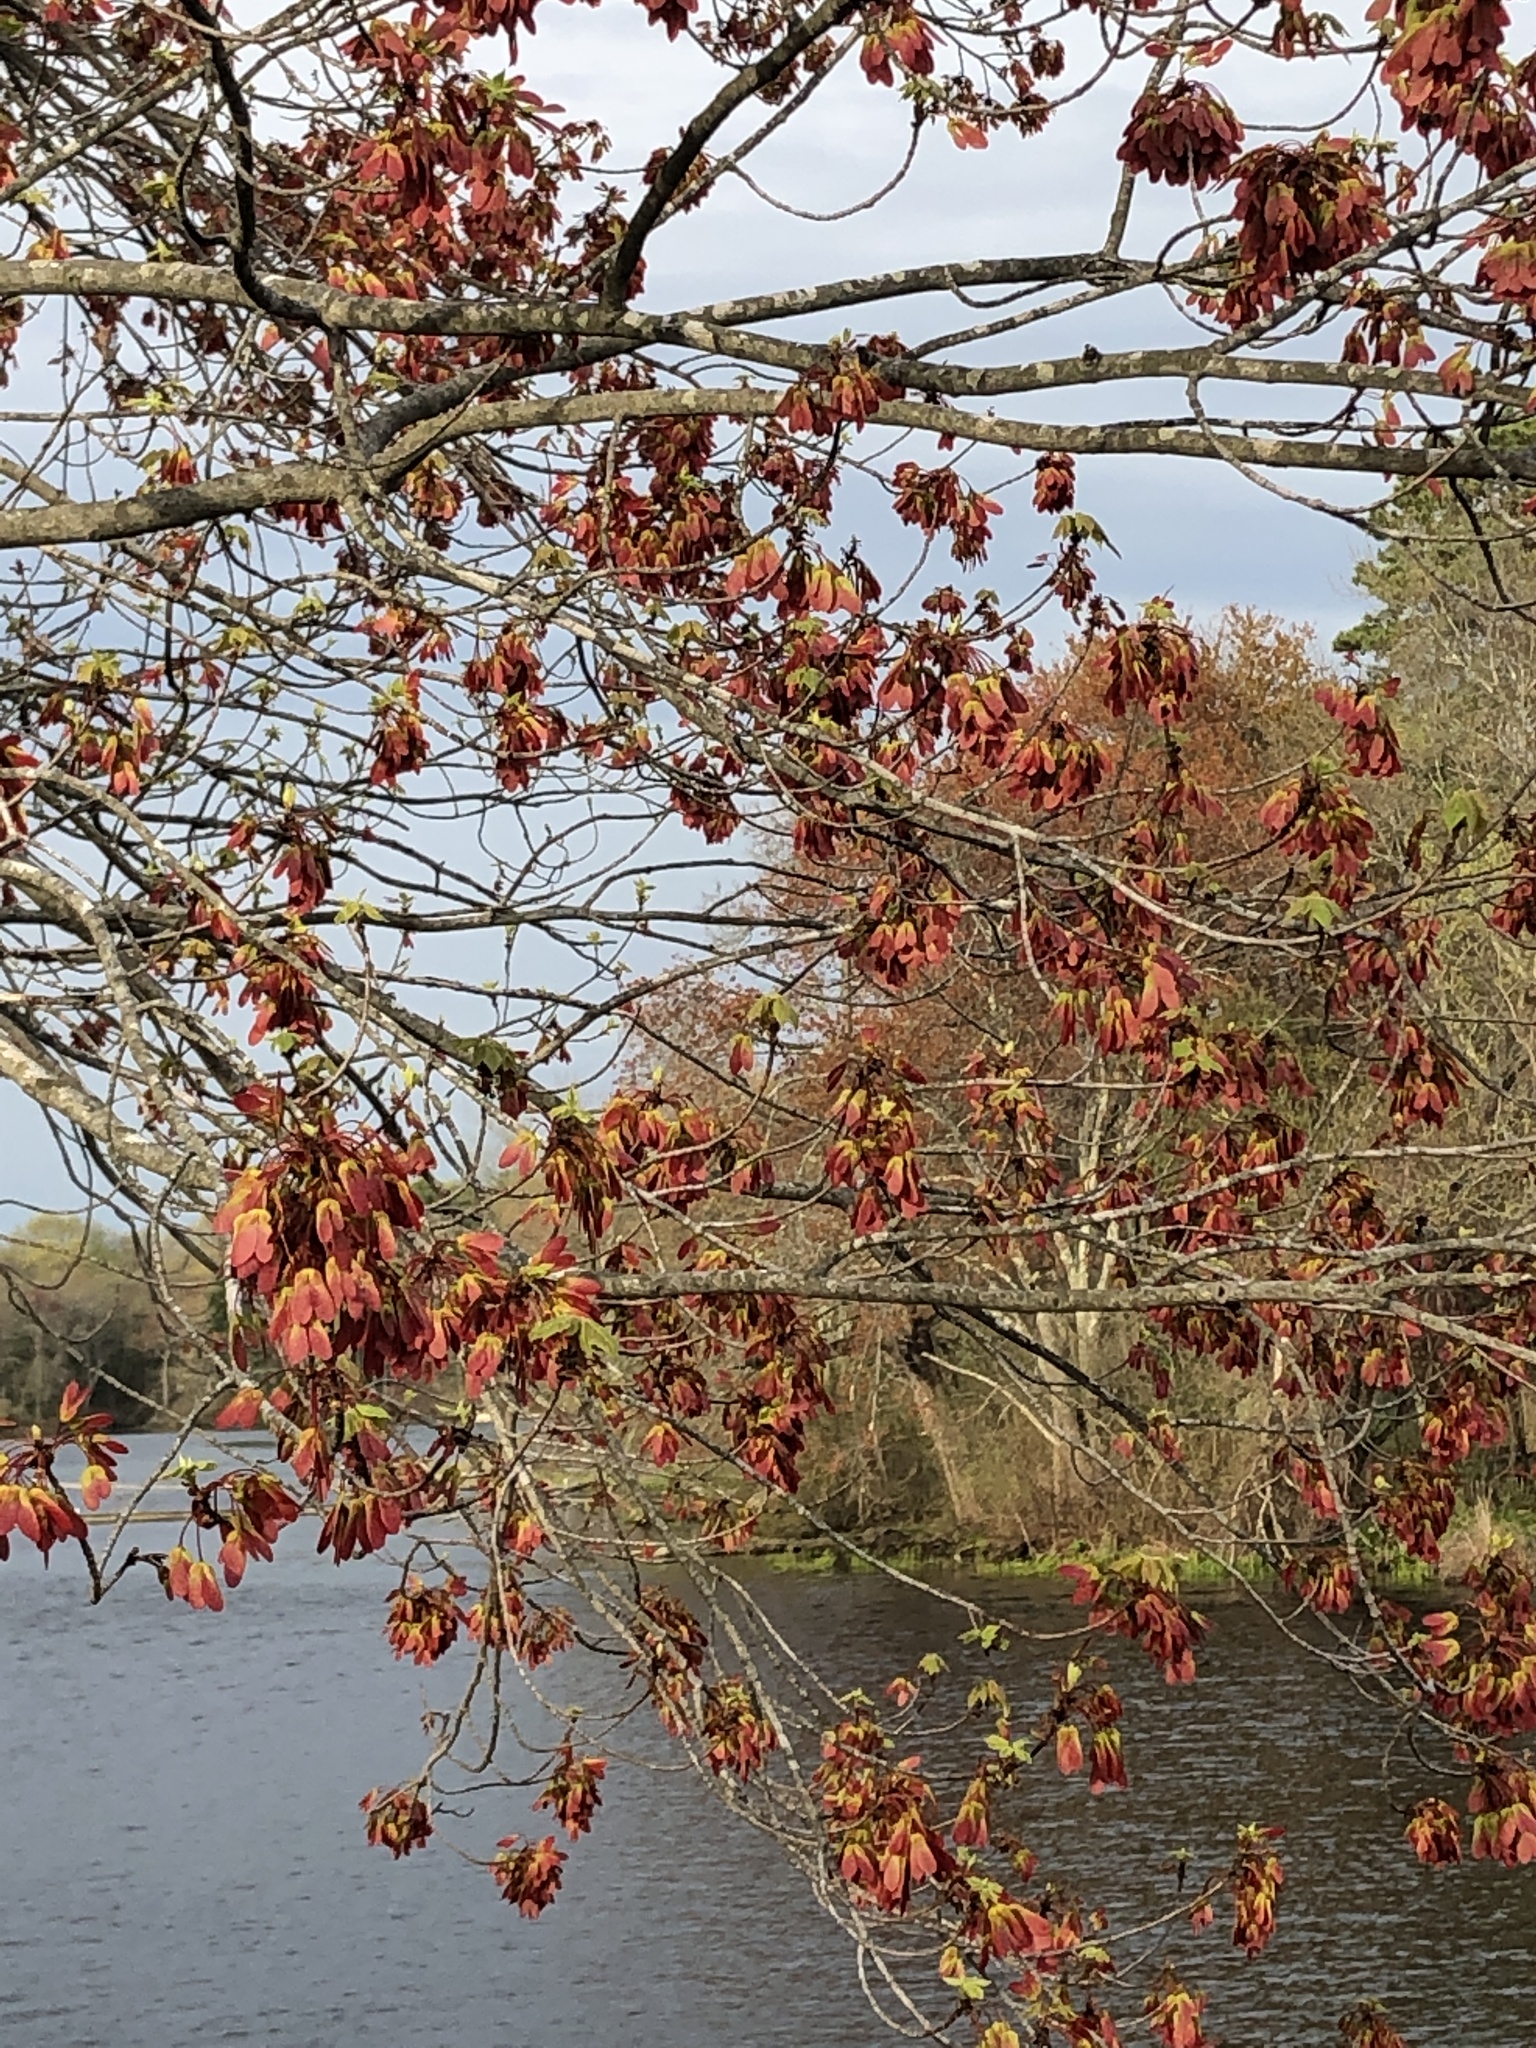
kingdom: Plantae
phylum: Tracheophyta
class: Magnoliopsida
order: Sapindales
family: Sapindaceae
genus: Acer
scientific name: Acer rubrum
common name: Red maple
